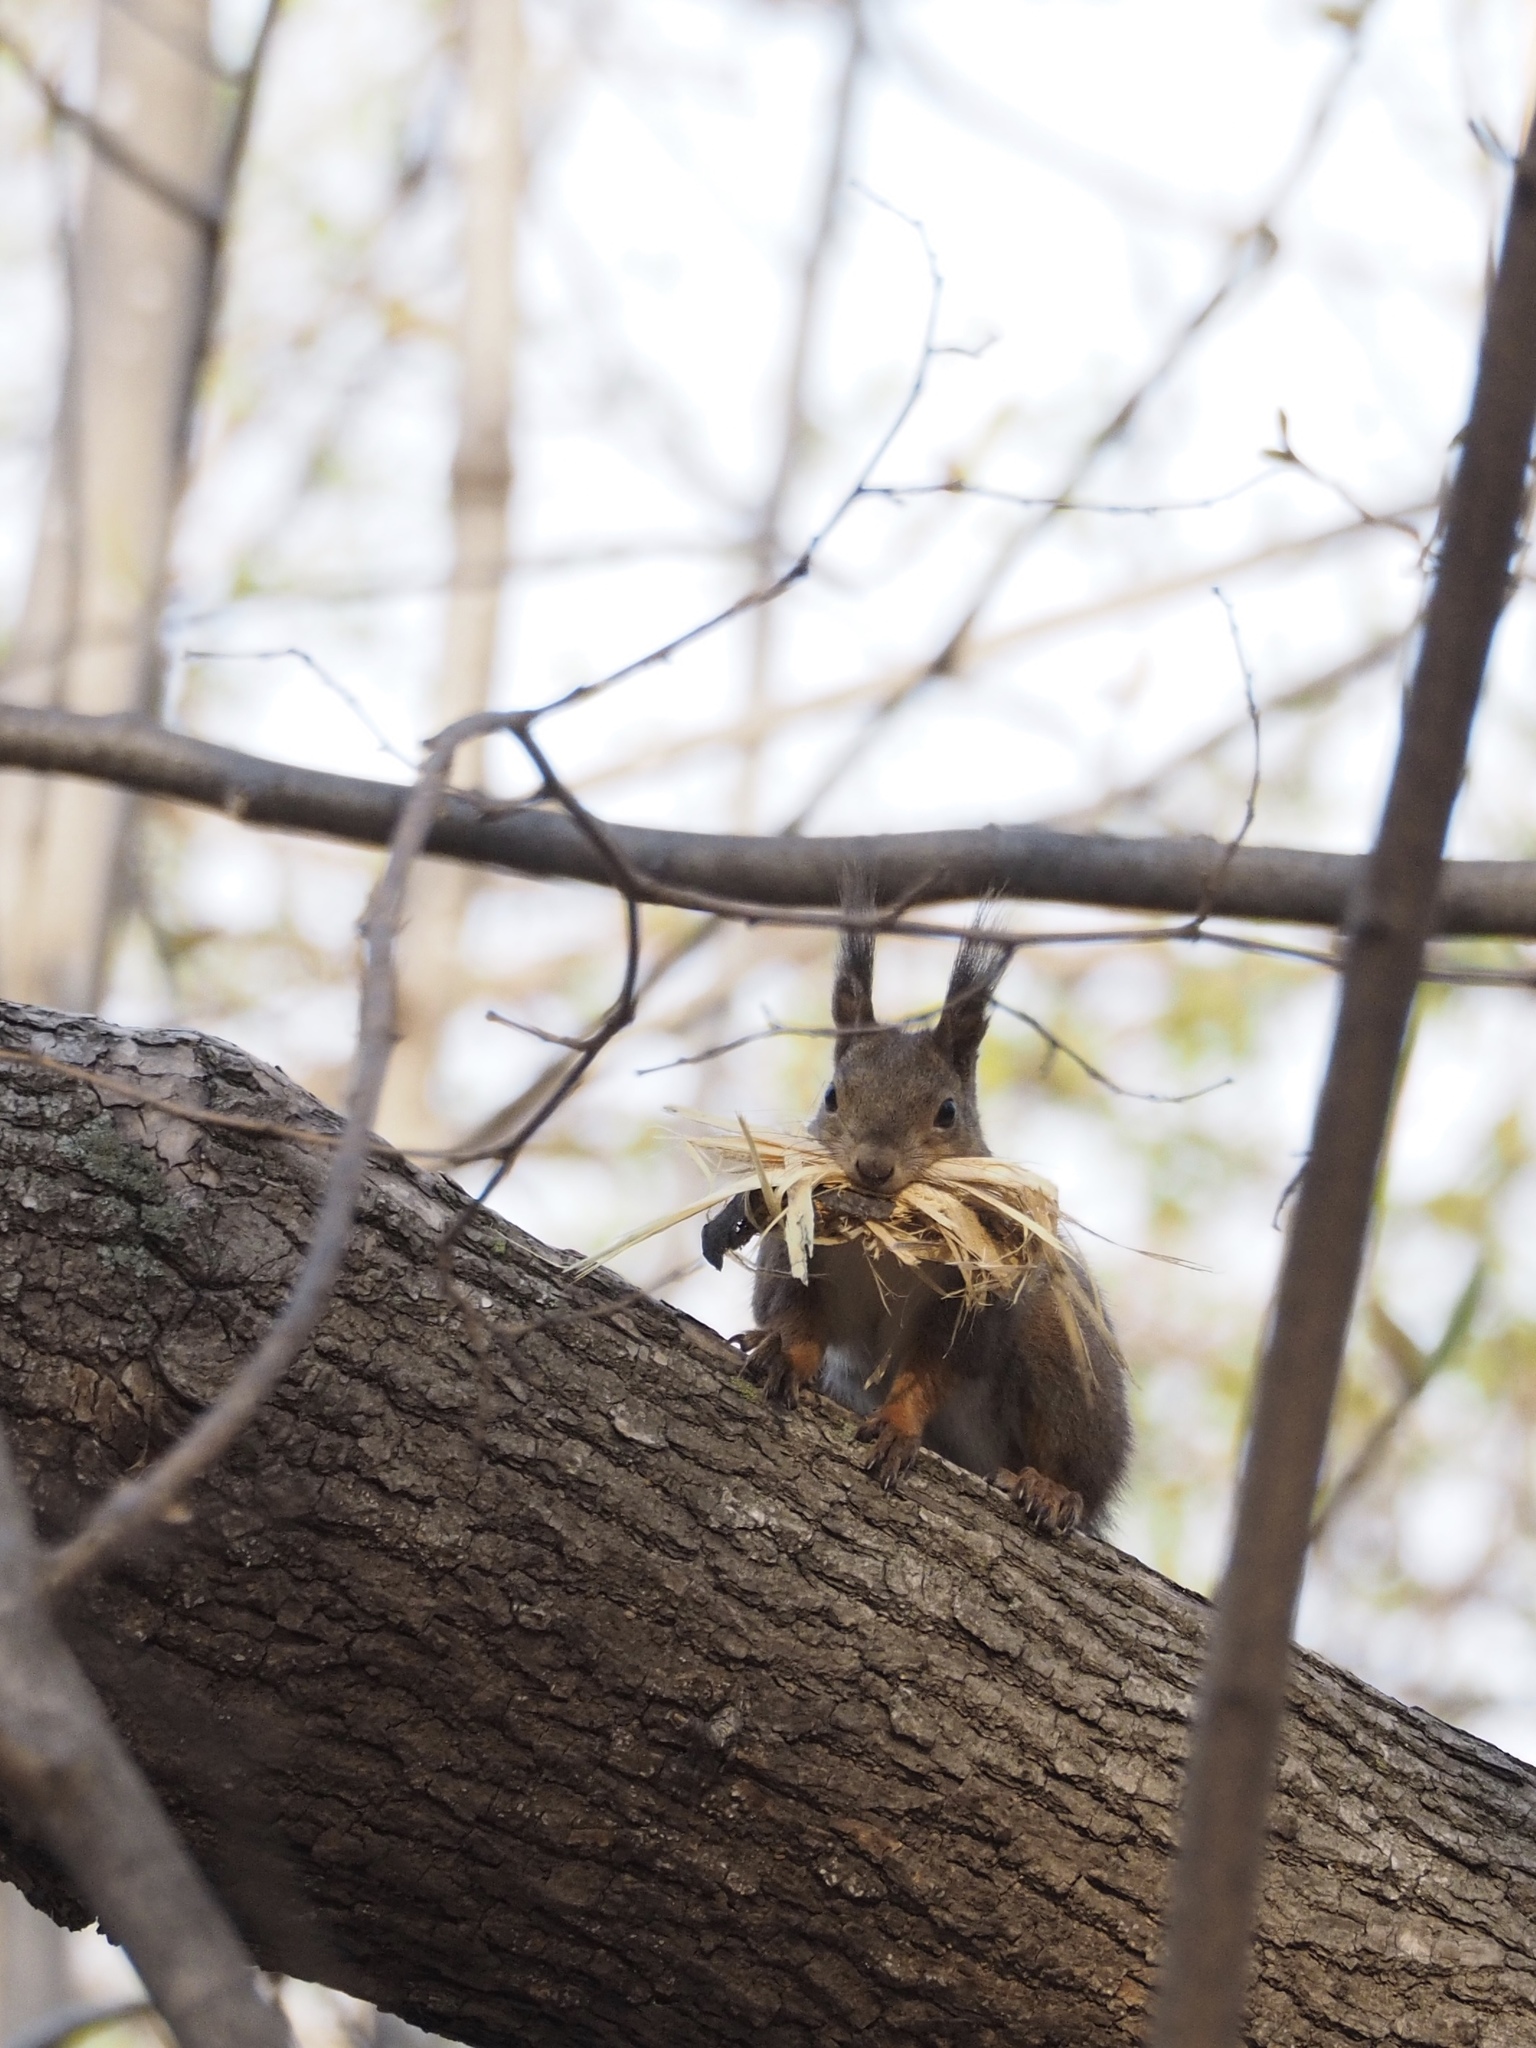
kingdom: Animalia
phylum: Chordata
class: Mammalia
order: Rodentia
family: Sciuridae
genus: Sciurus
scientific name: Sciurus vulgaris
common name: Eurasian red squirrel
